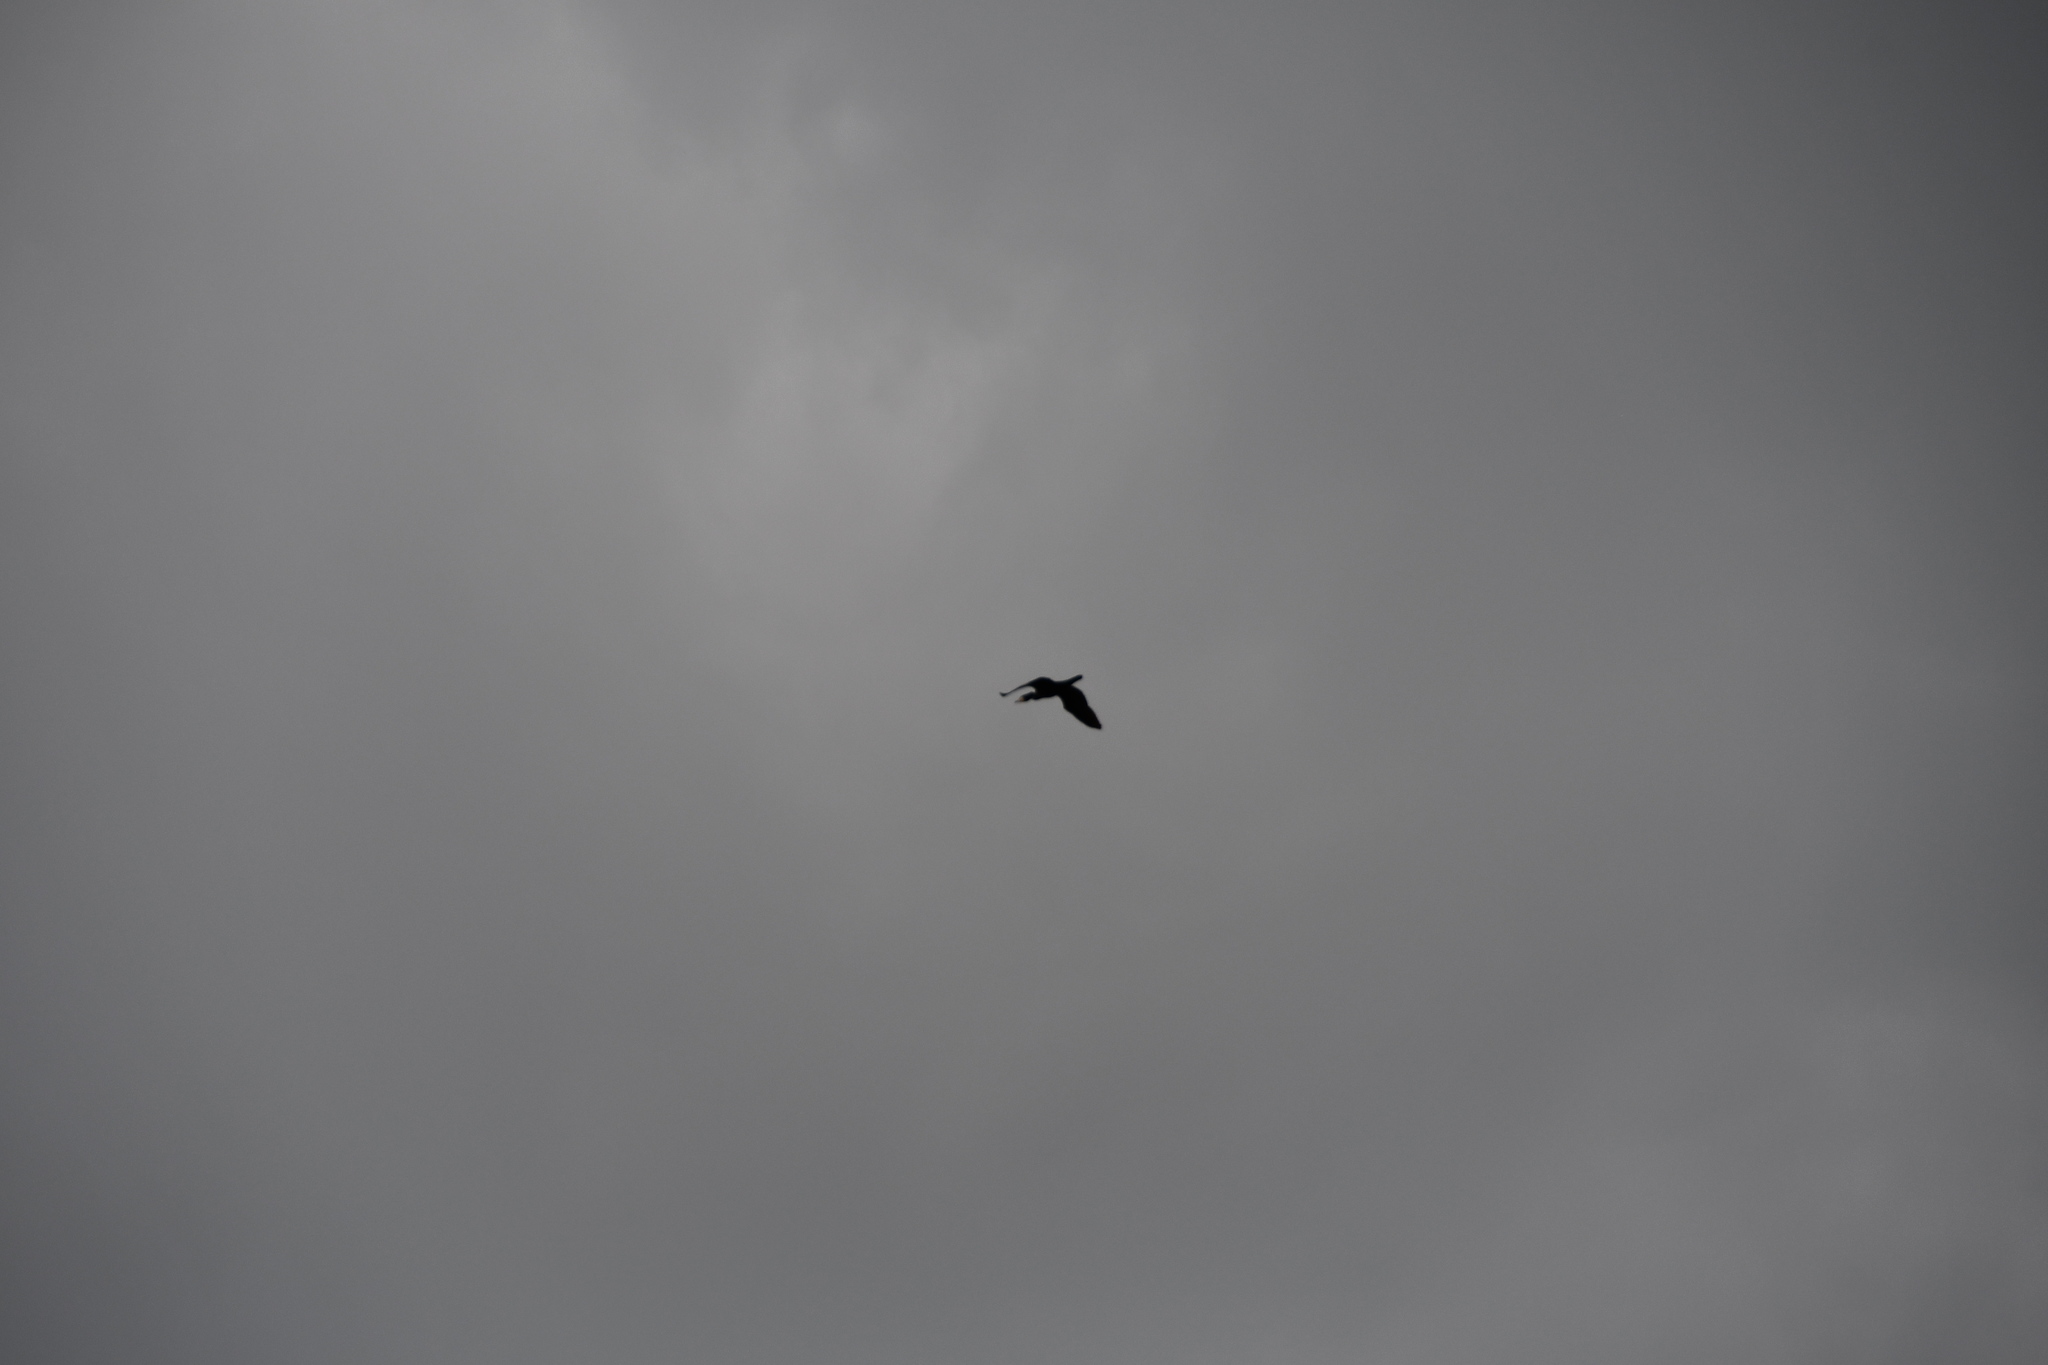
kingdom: Animalia
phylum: Chordata
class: Aves
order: Suliformes
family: Phalacrocoracidae
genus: Phalacrocorax
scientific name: Phalacrocorax carbo
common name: Great cormorant
